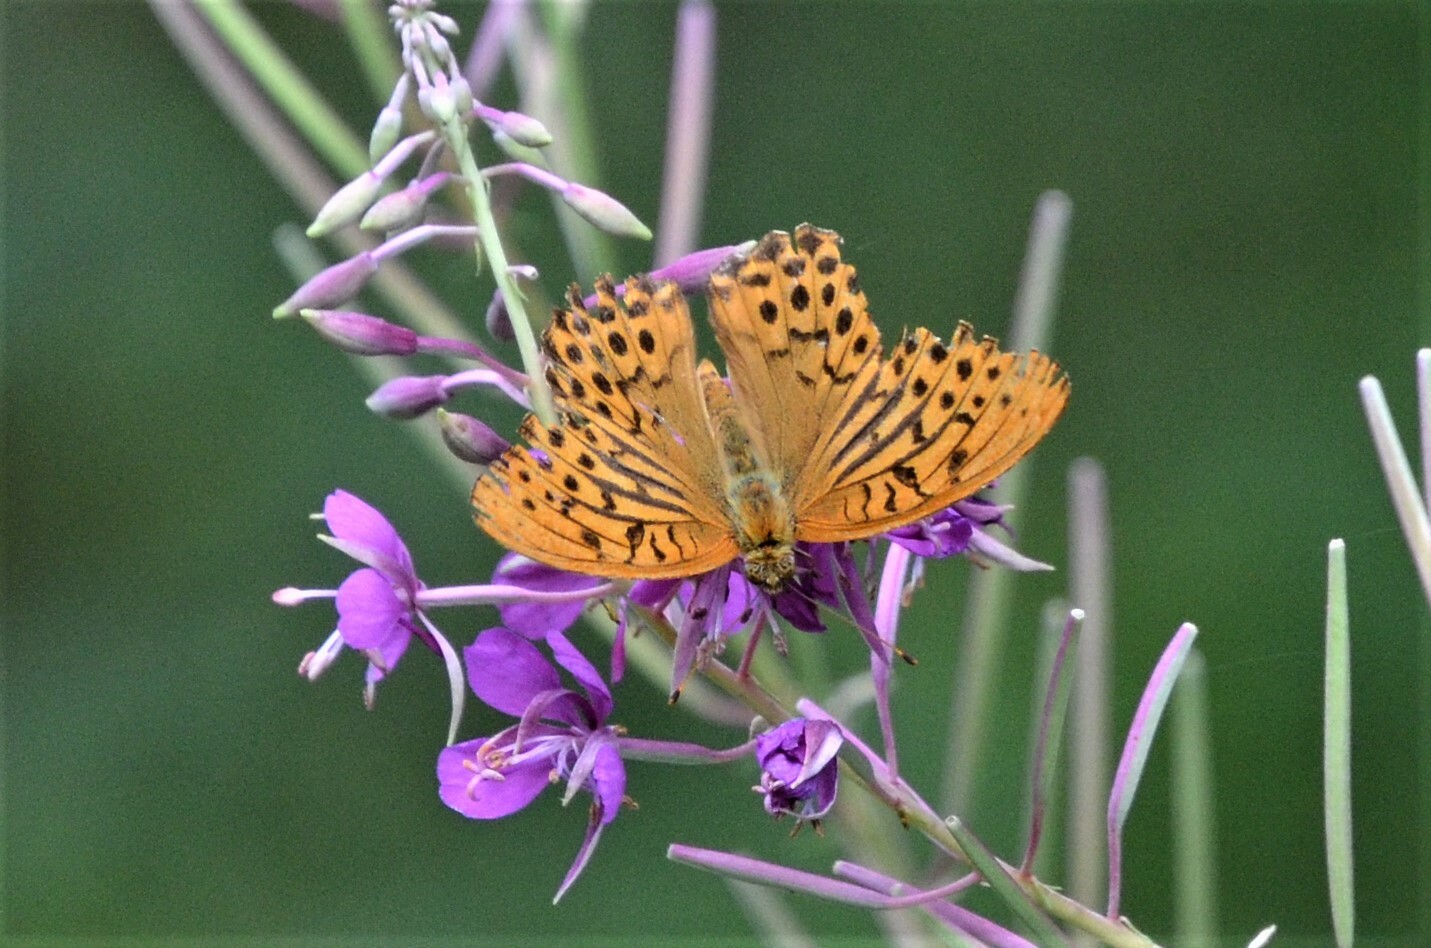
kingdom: Animalia
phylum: Arthropoda
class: Insecta
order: Lepidoptera
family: Nymphalidae
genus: Argynnis
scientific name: Argynnis paphia
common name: Silver-washed fritillary
